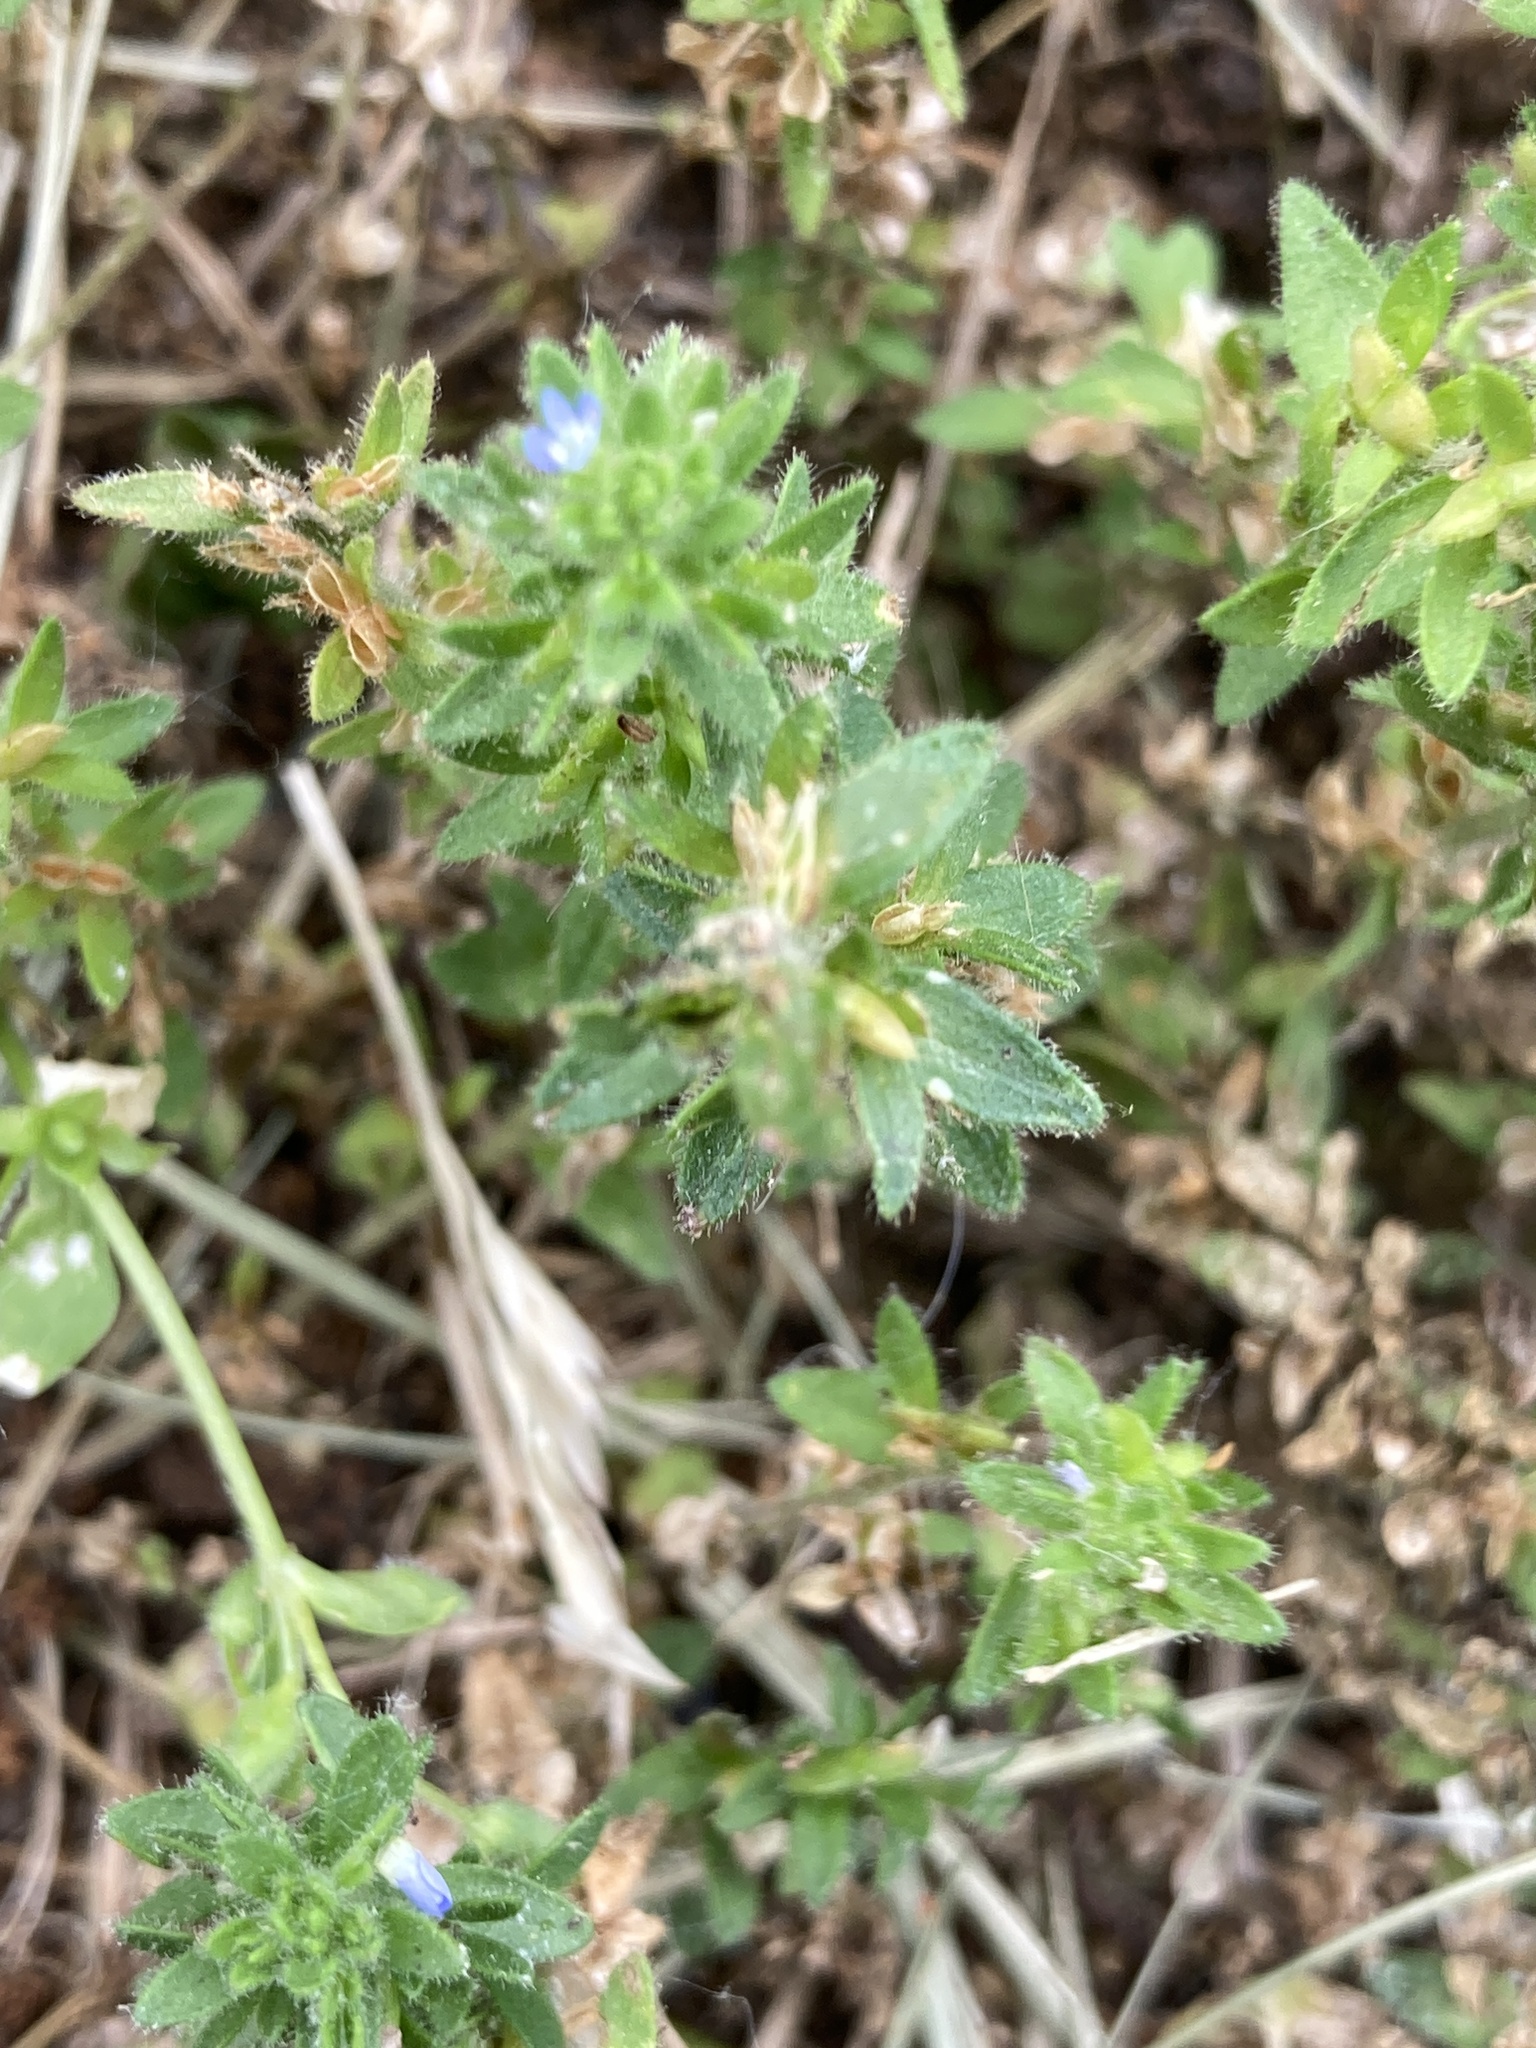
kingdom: Plantae
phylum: Tracheophyta
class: Magnoliopsida
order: Lamiales
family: Plantaginaceae
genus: Veronica
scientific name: Veronica arvensis
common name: Corn speedwell
